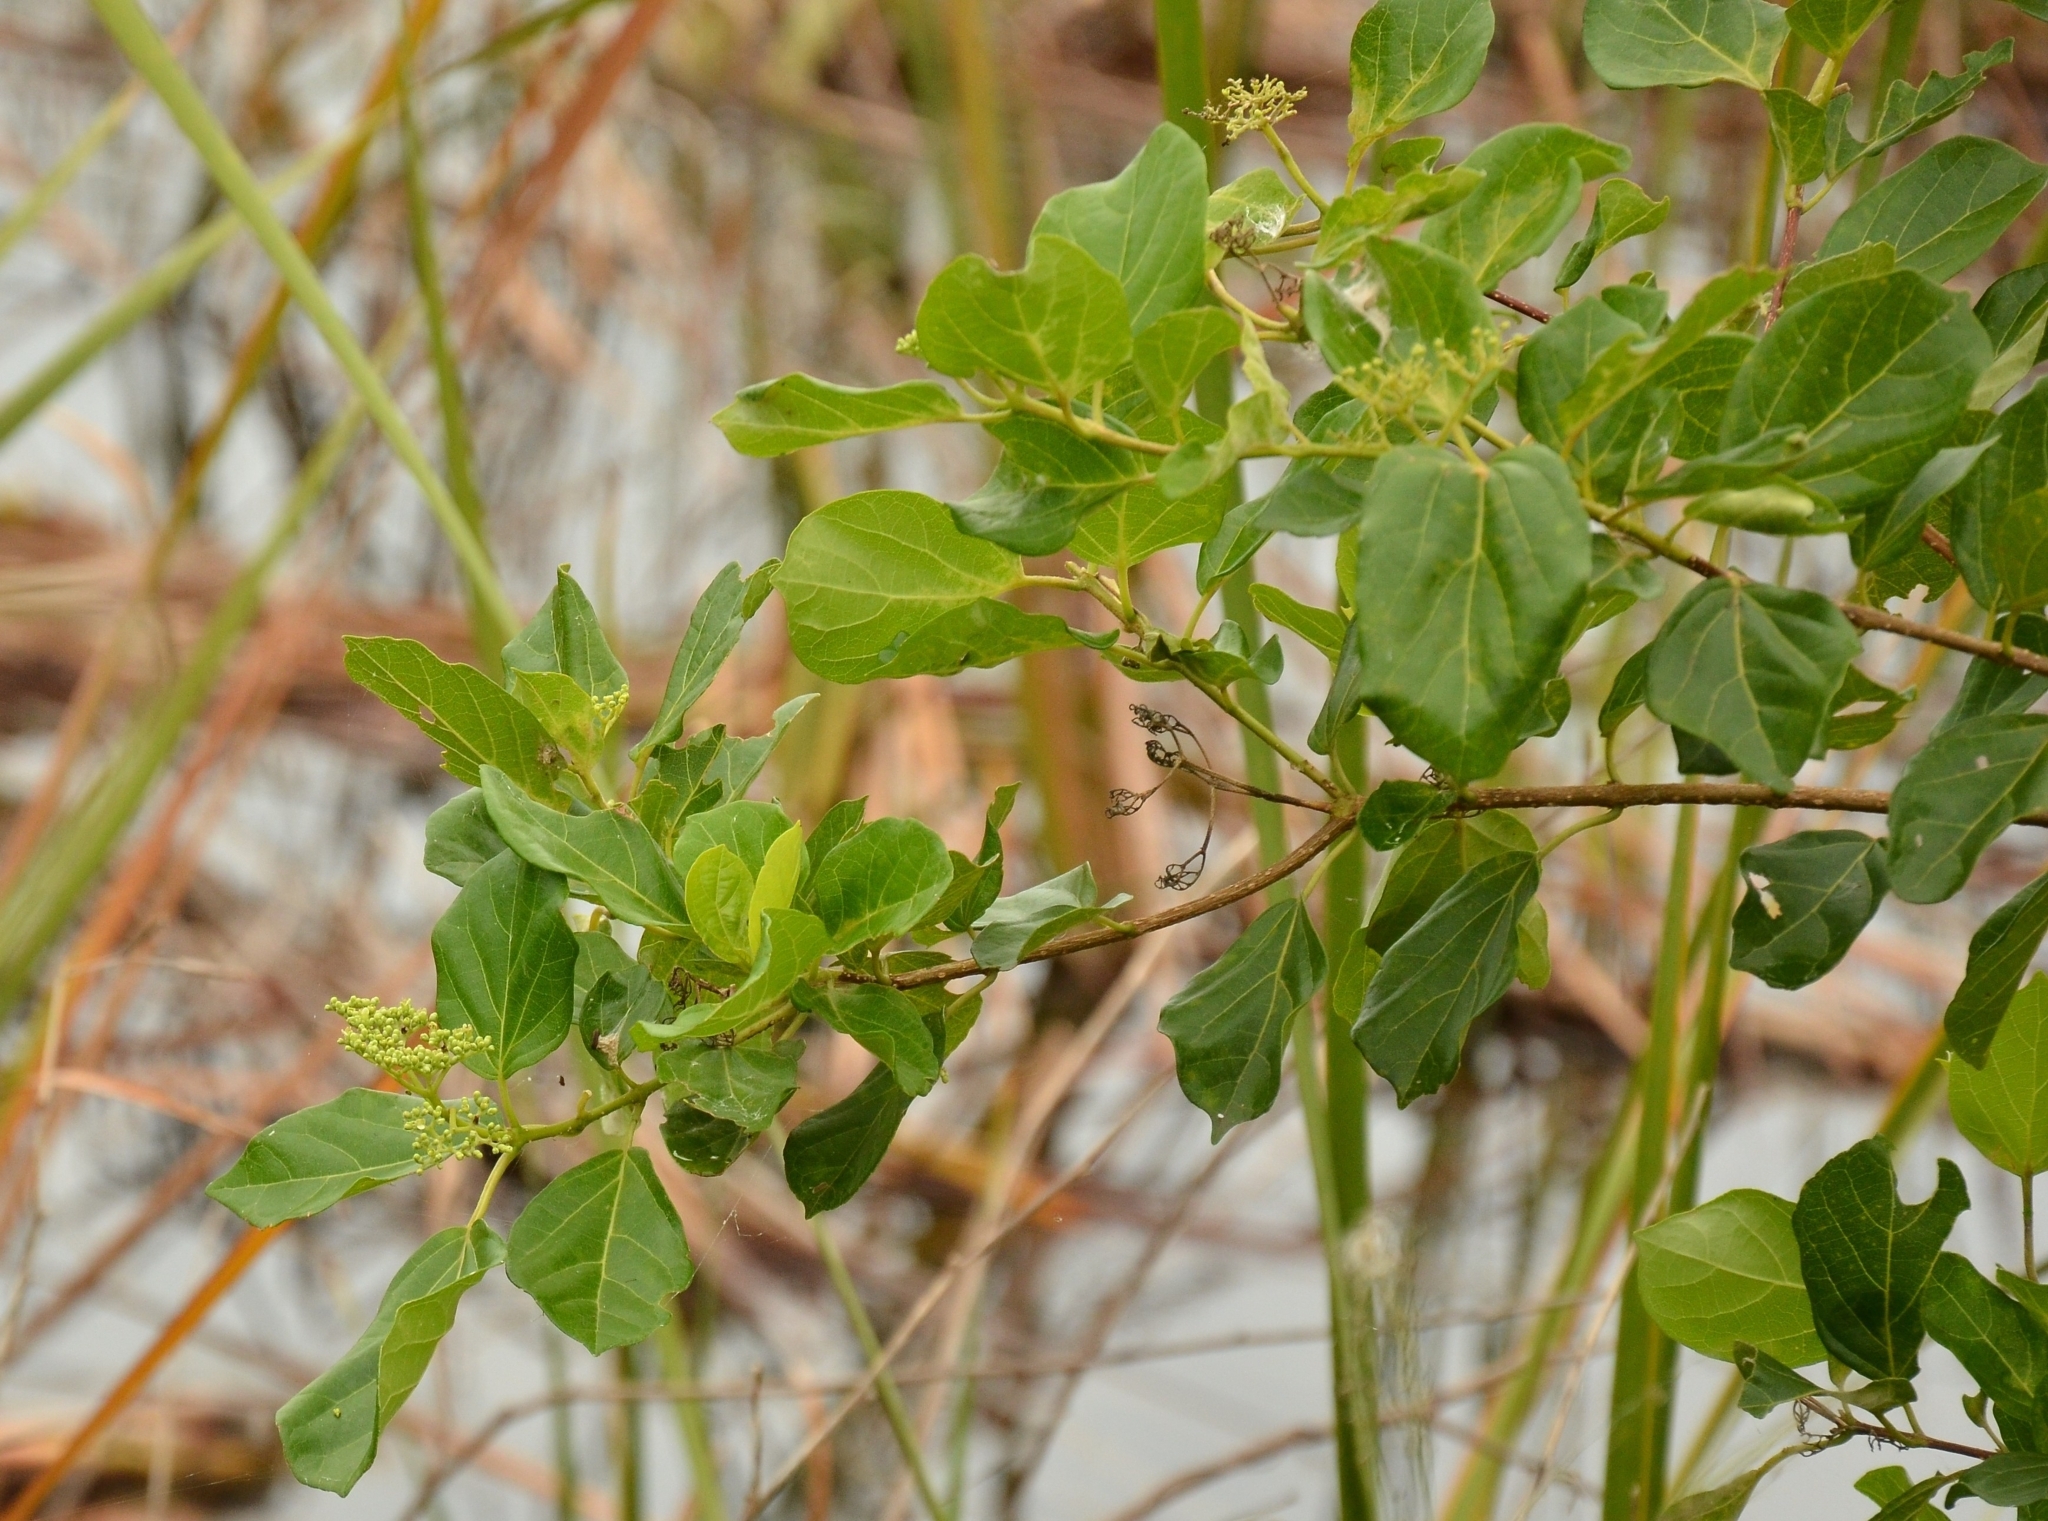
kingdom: Plantae
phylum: Tracheophyta
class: Magnoliopsida
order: Lamiales
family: Lamiaceae
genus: Premna
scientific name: Premna serratifolia
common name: Bastard guelder
